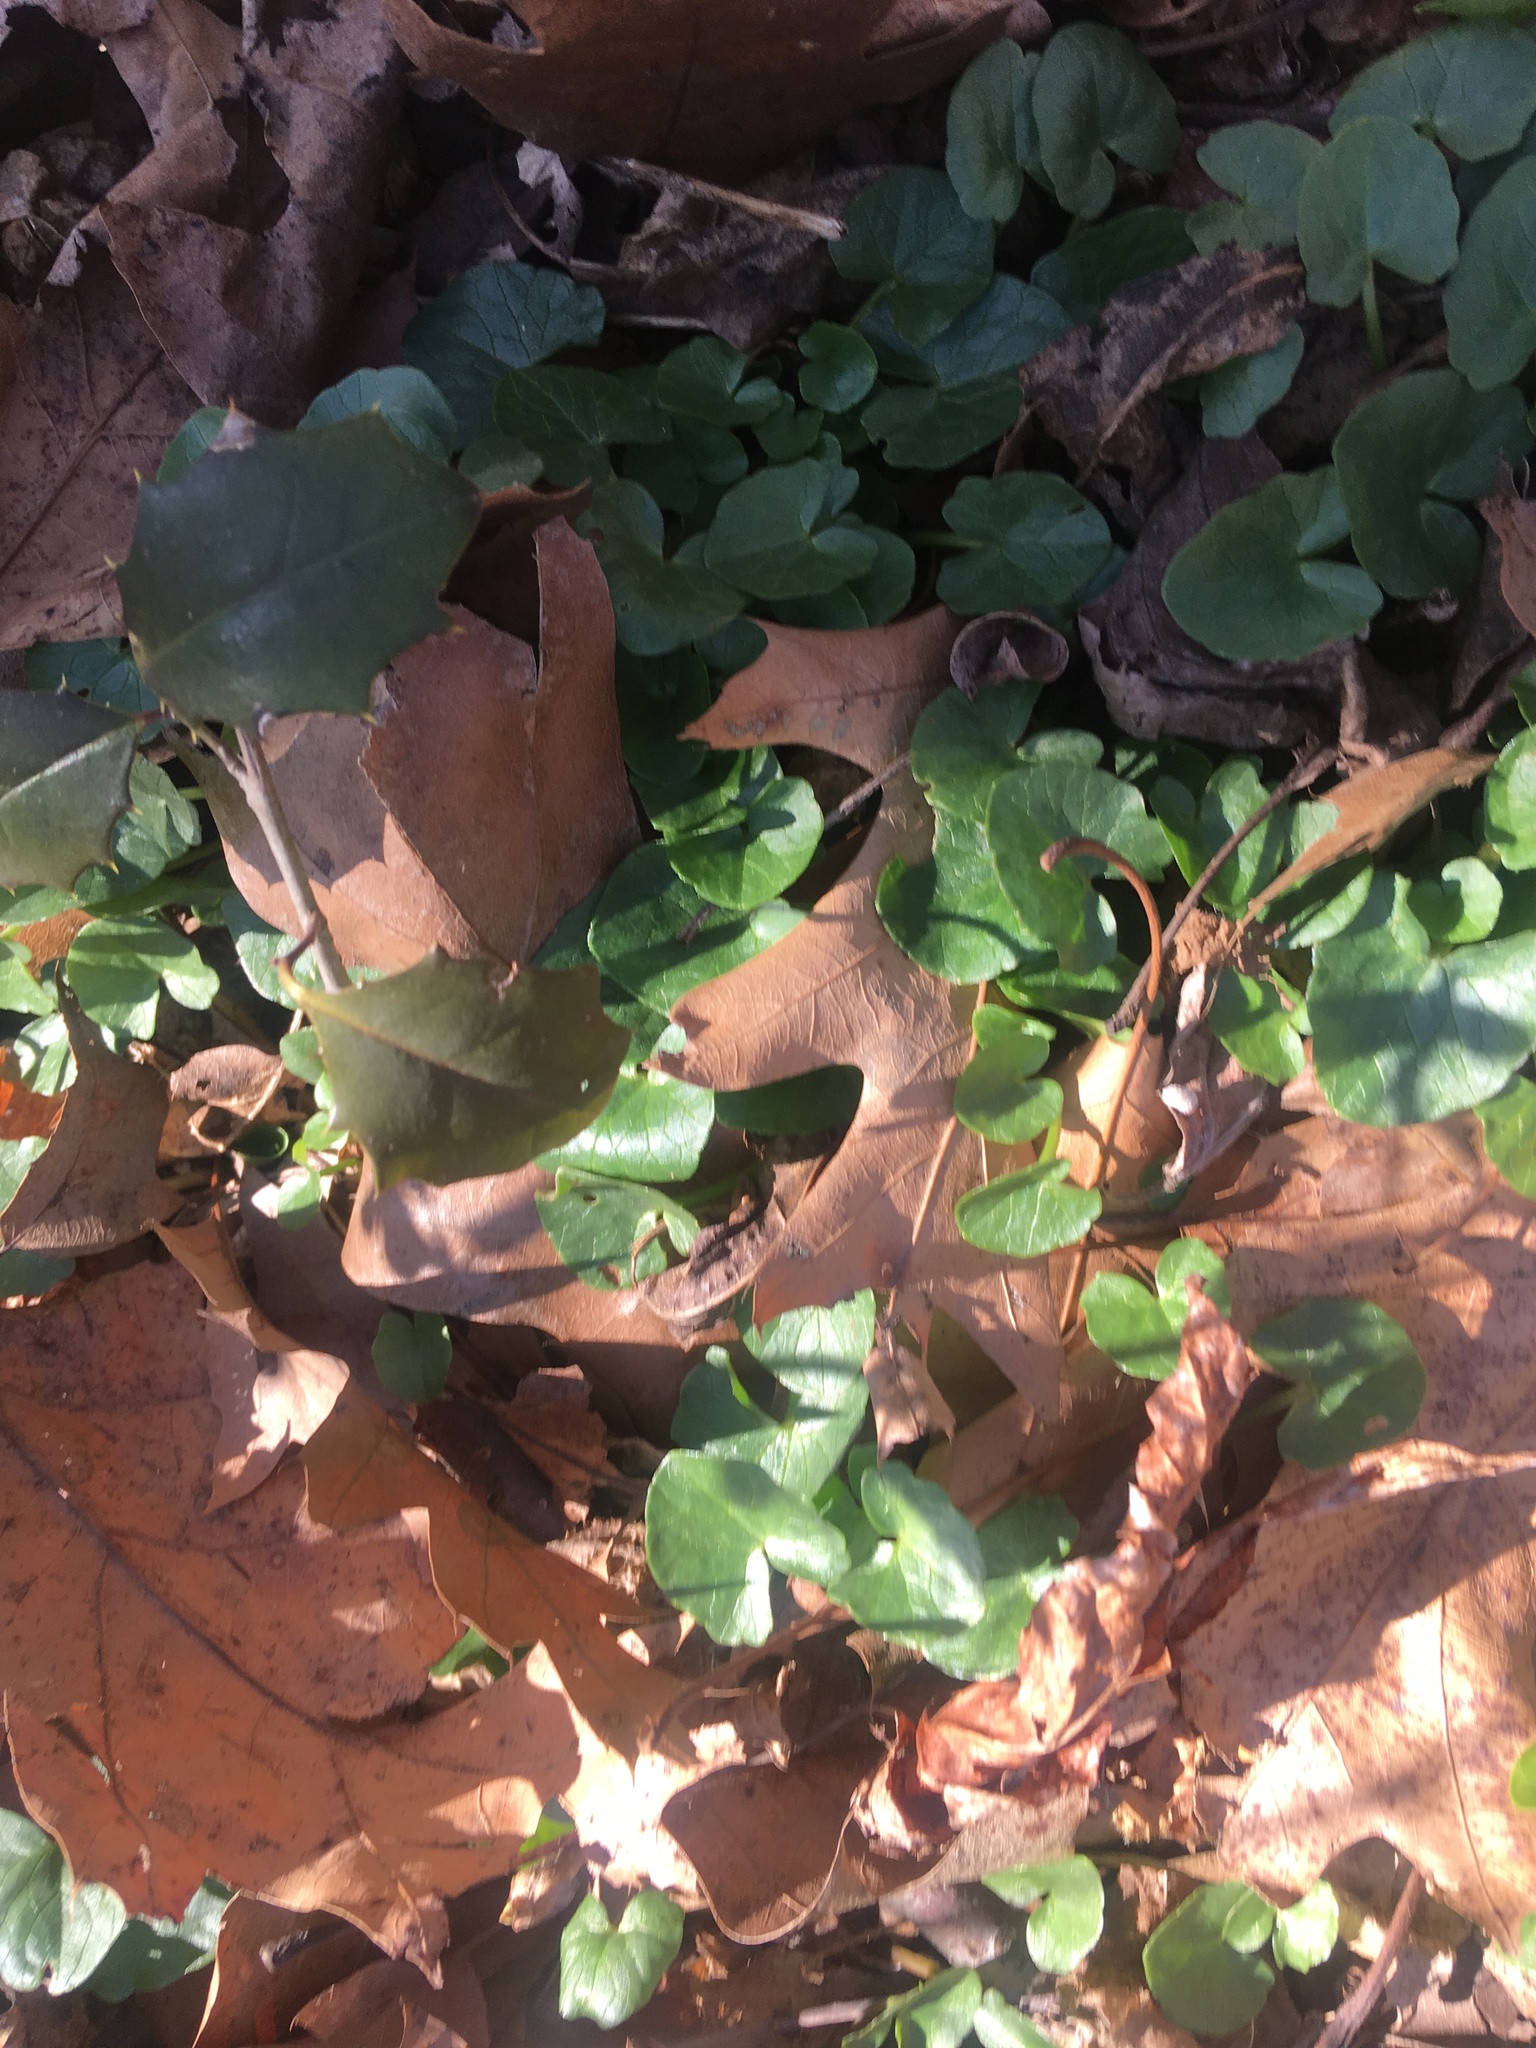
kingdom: Plantae
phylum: Tracheophyta
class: Magnoliopsida
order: Ranunculales
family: Ranunculaceae
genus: Ficaria
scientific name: Ficaria verna
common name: Lesser celandine
